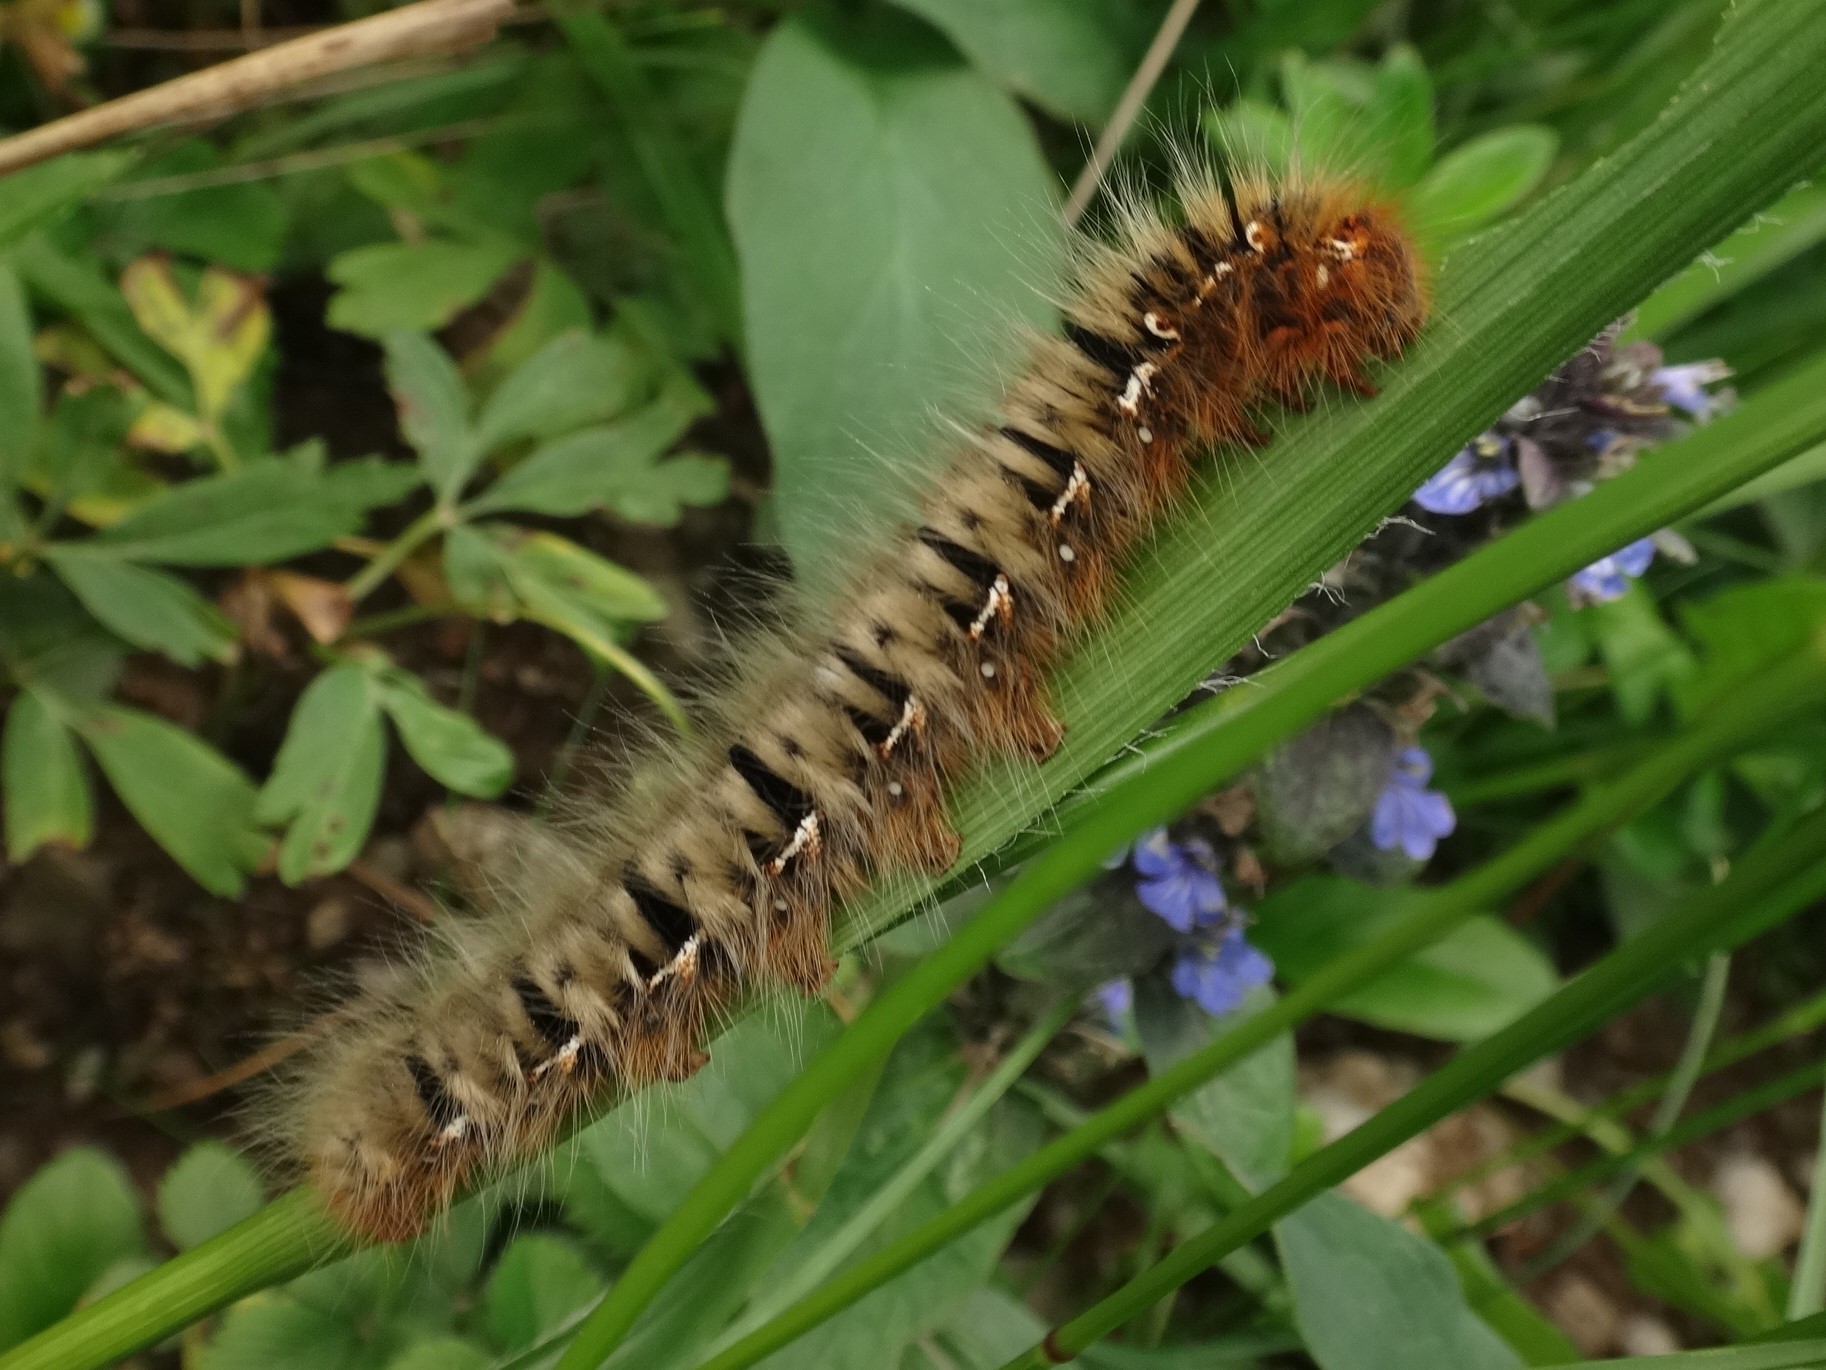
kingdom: Animalia
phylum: Arthropoda
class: Insecta
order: Lepidoptera
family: Lasiocampidae
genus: Lasiocampa
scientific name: Lasiocampa quercus
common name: Oak eggar
